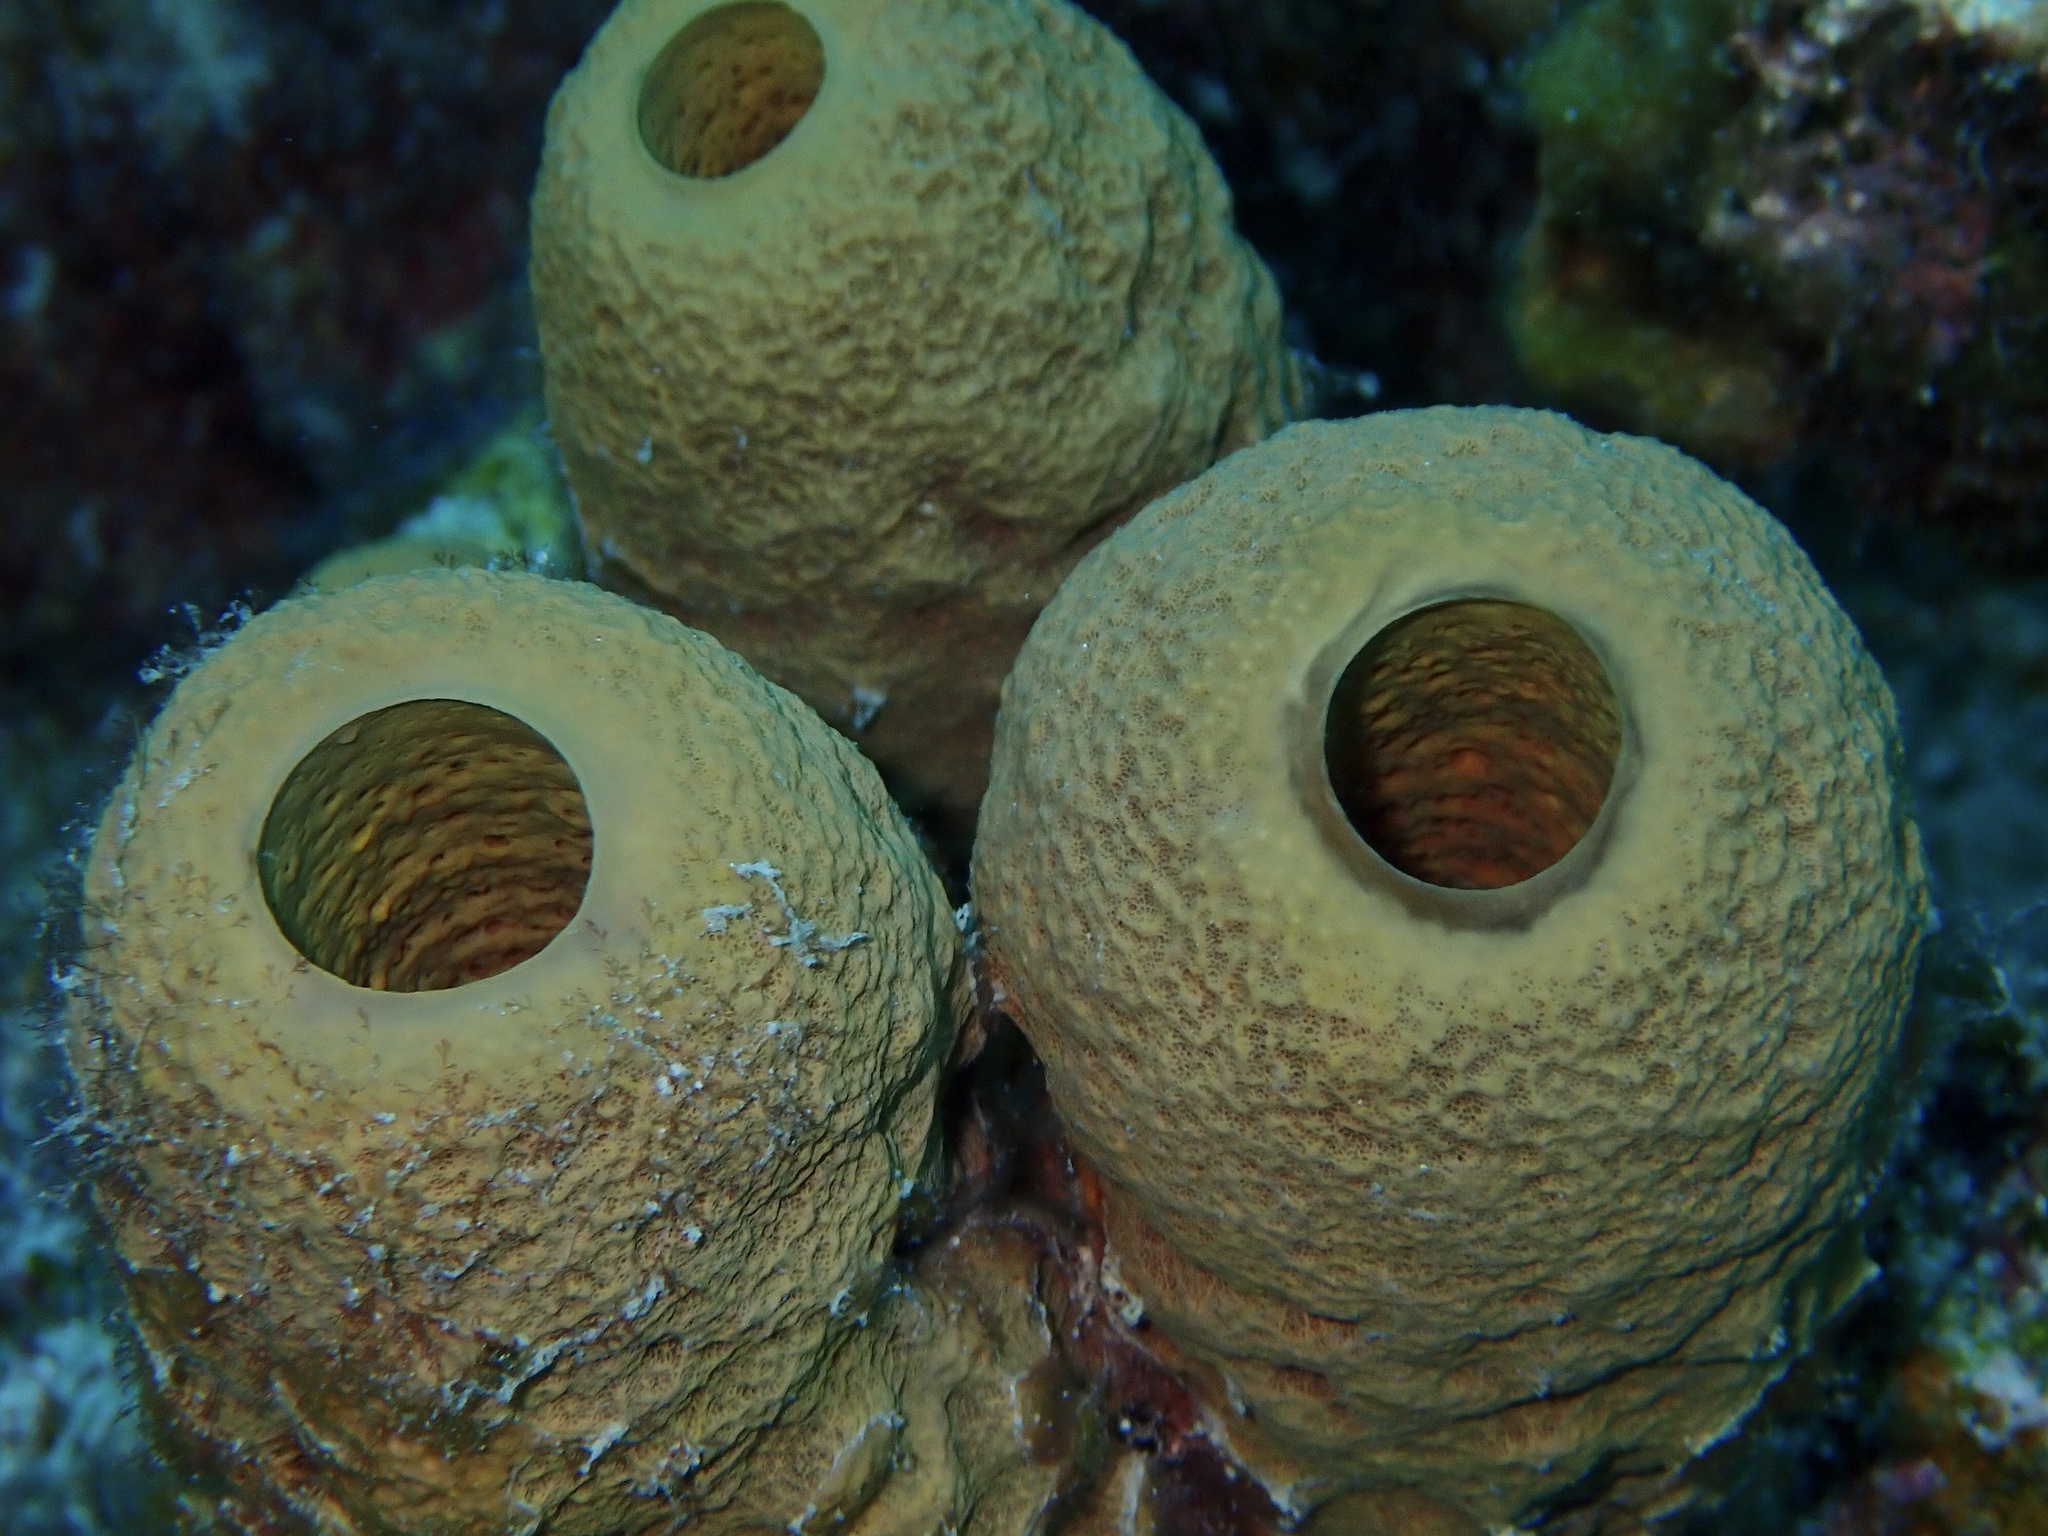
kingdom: Animalia
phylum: Porifera
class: Demospongiae
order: Verongiida
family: Aplysinidae
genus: Aplysina
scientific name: Aplysina fistularis
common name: Candle sponge
